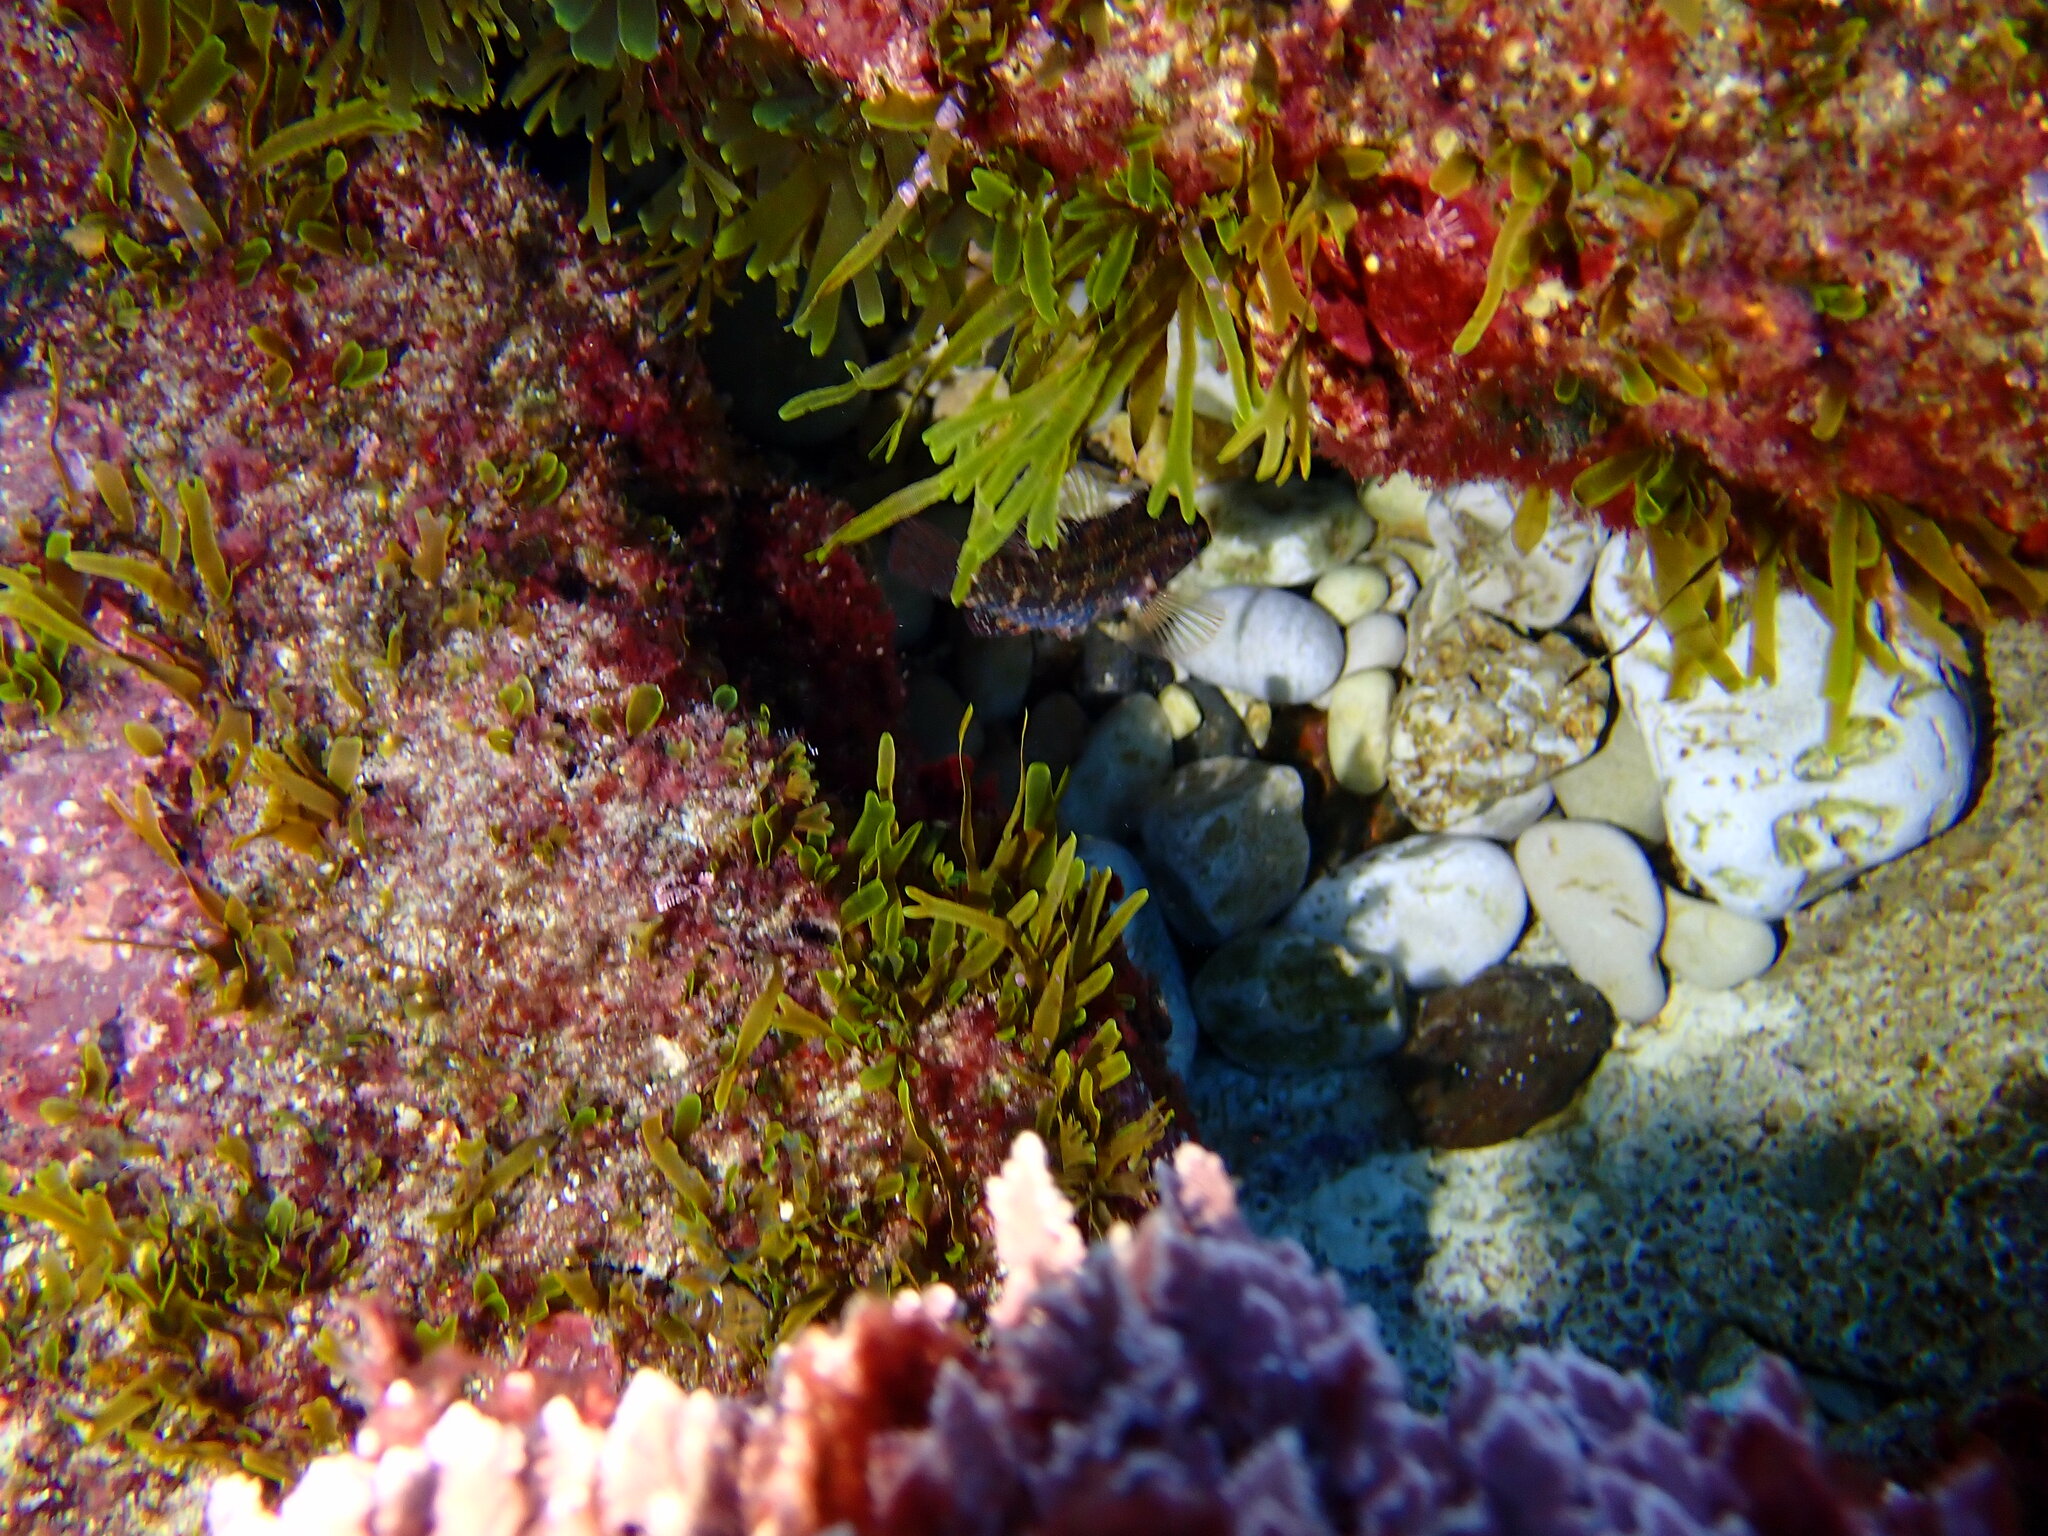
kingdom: Animalia
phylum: Chordata
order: Perciformes
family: Labridae
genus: Symphodus
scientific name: Symphodus roissali
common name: Five-spotted wrasse
